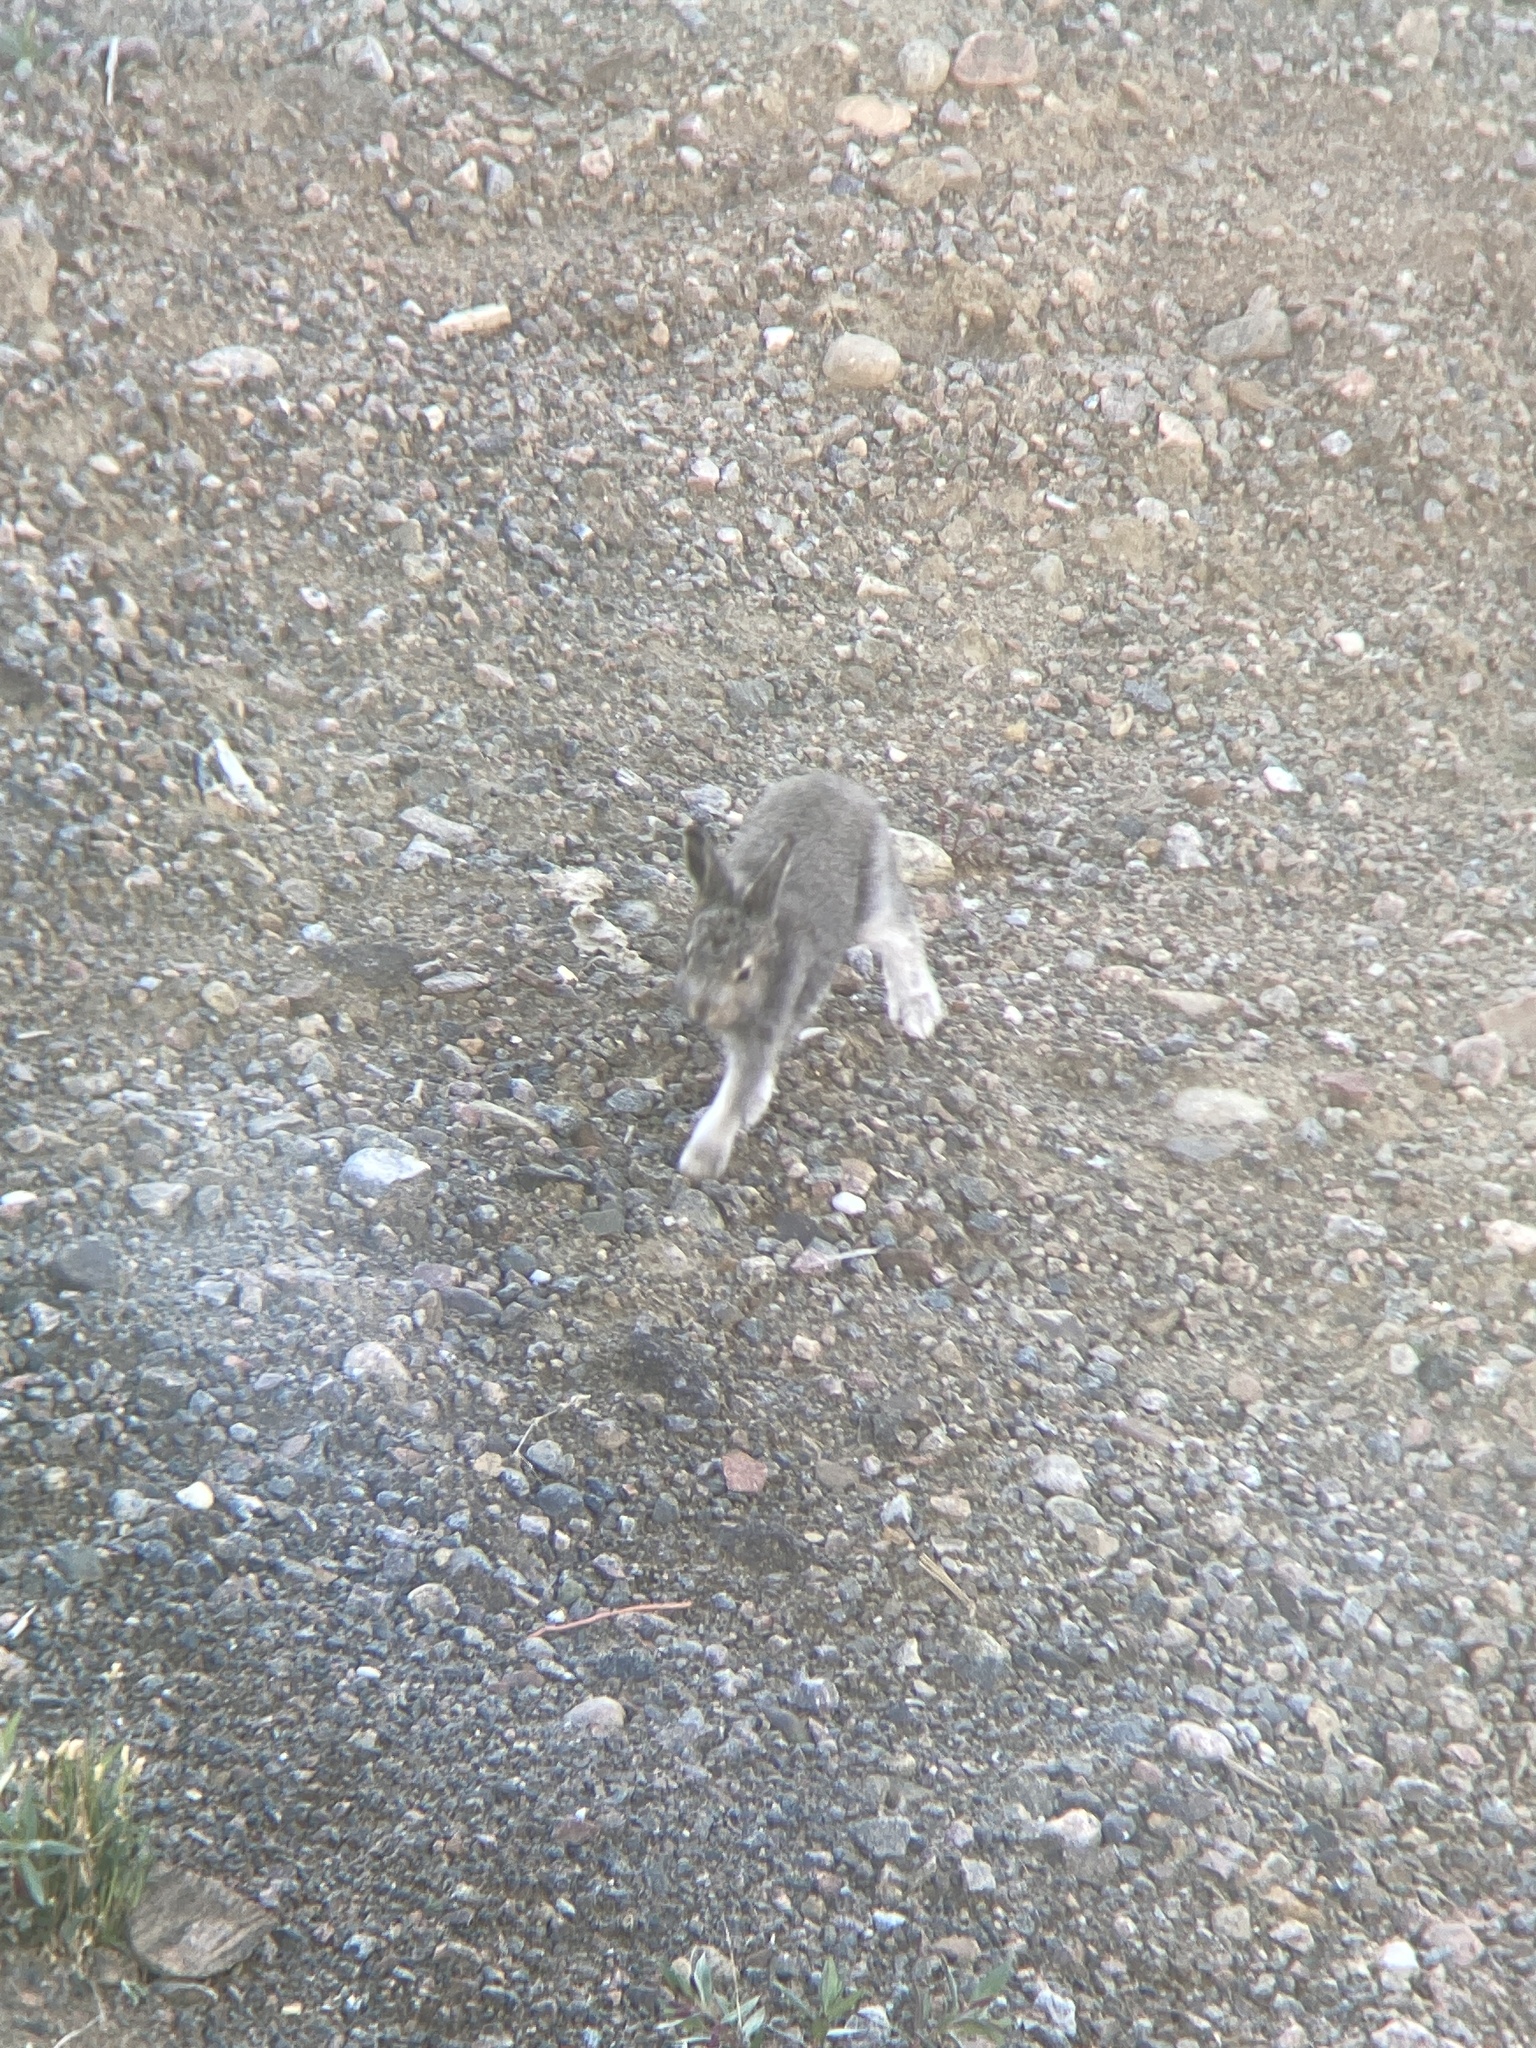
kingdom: Animalia
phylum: Chordata
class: Mammalia
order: Lagomorpha
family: Leporidae
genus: Lepus
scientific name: Lepus arcticus
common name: Arctic hare
